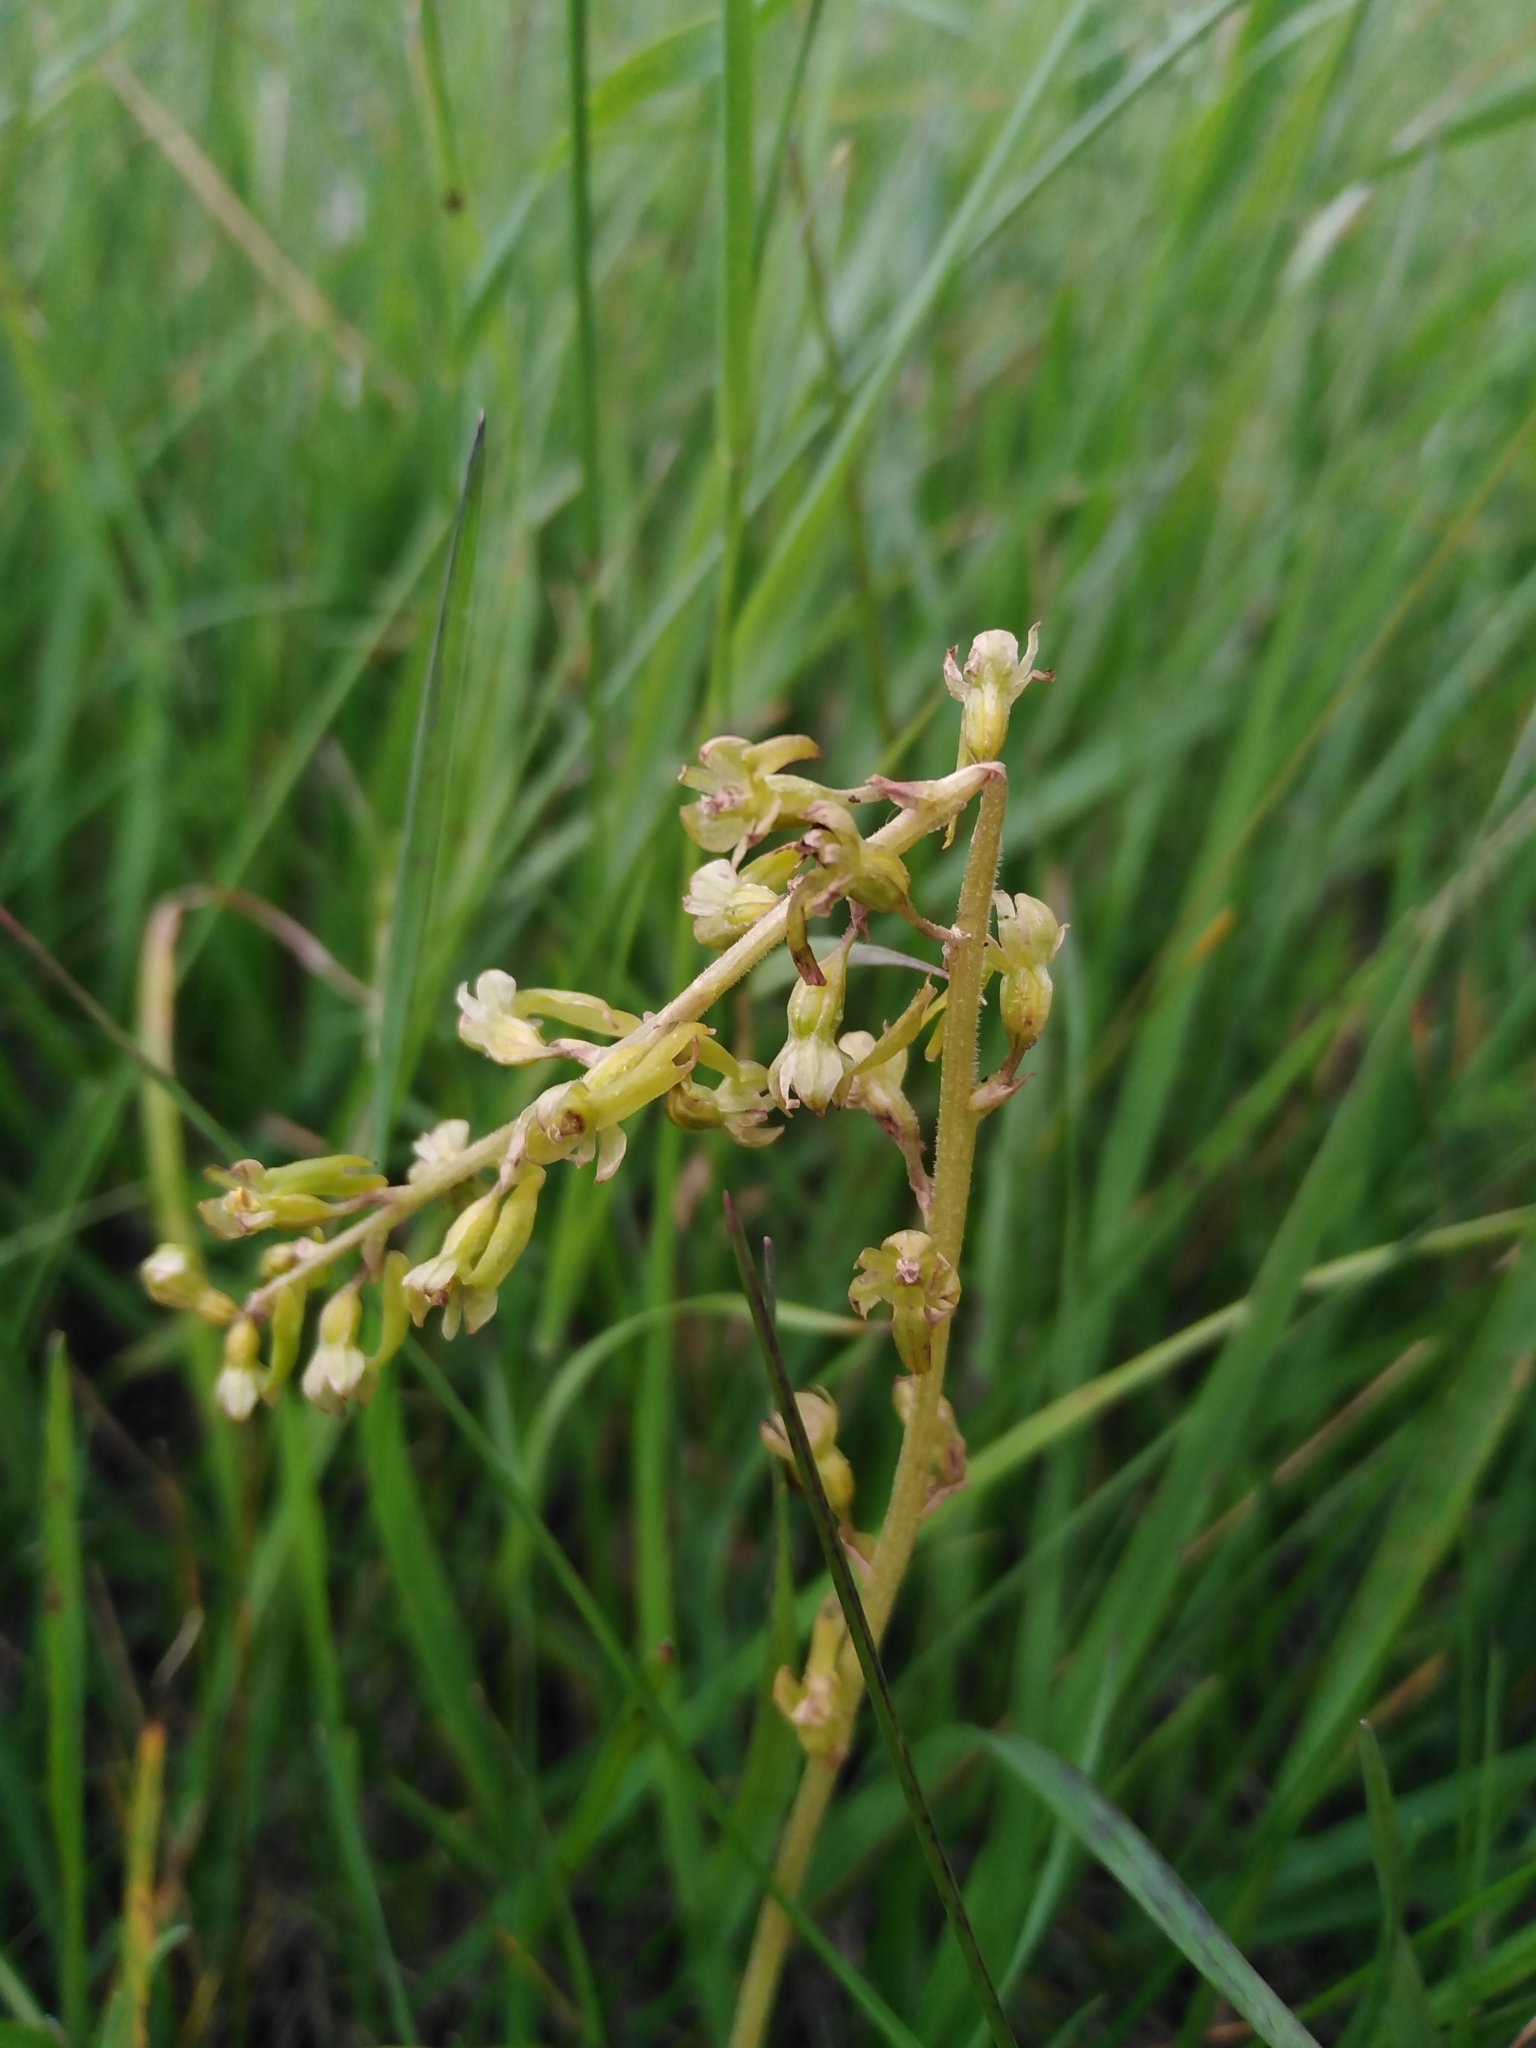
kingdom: Plantae
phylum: Tracheophyta
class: Liliopsida
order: Asparagales
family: Orchidaceae
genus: Neottia
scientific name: Neottia ovata
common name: Common twayblade
